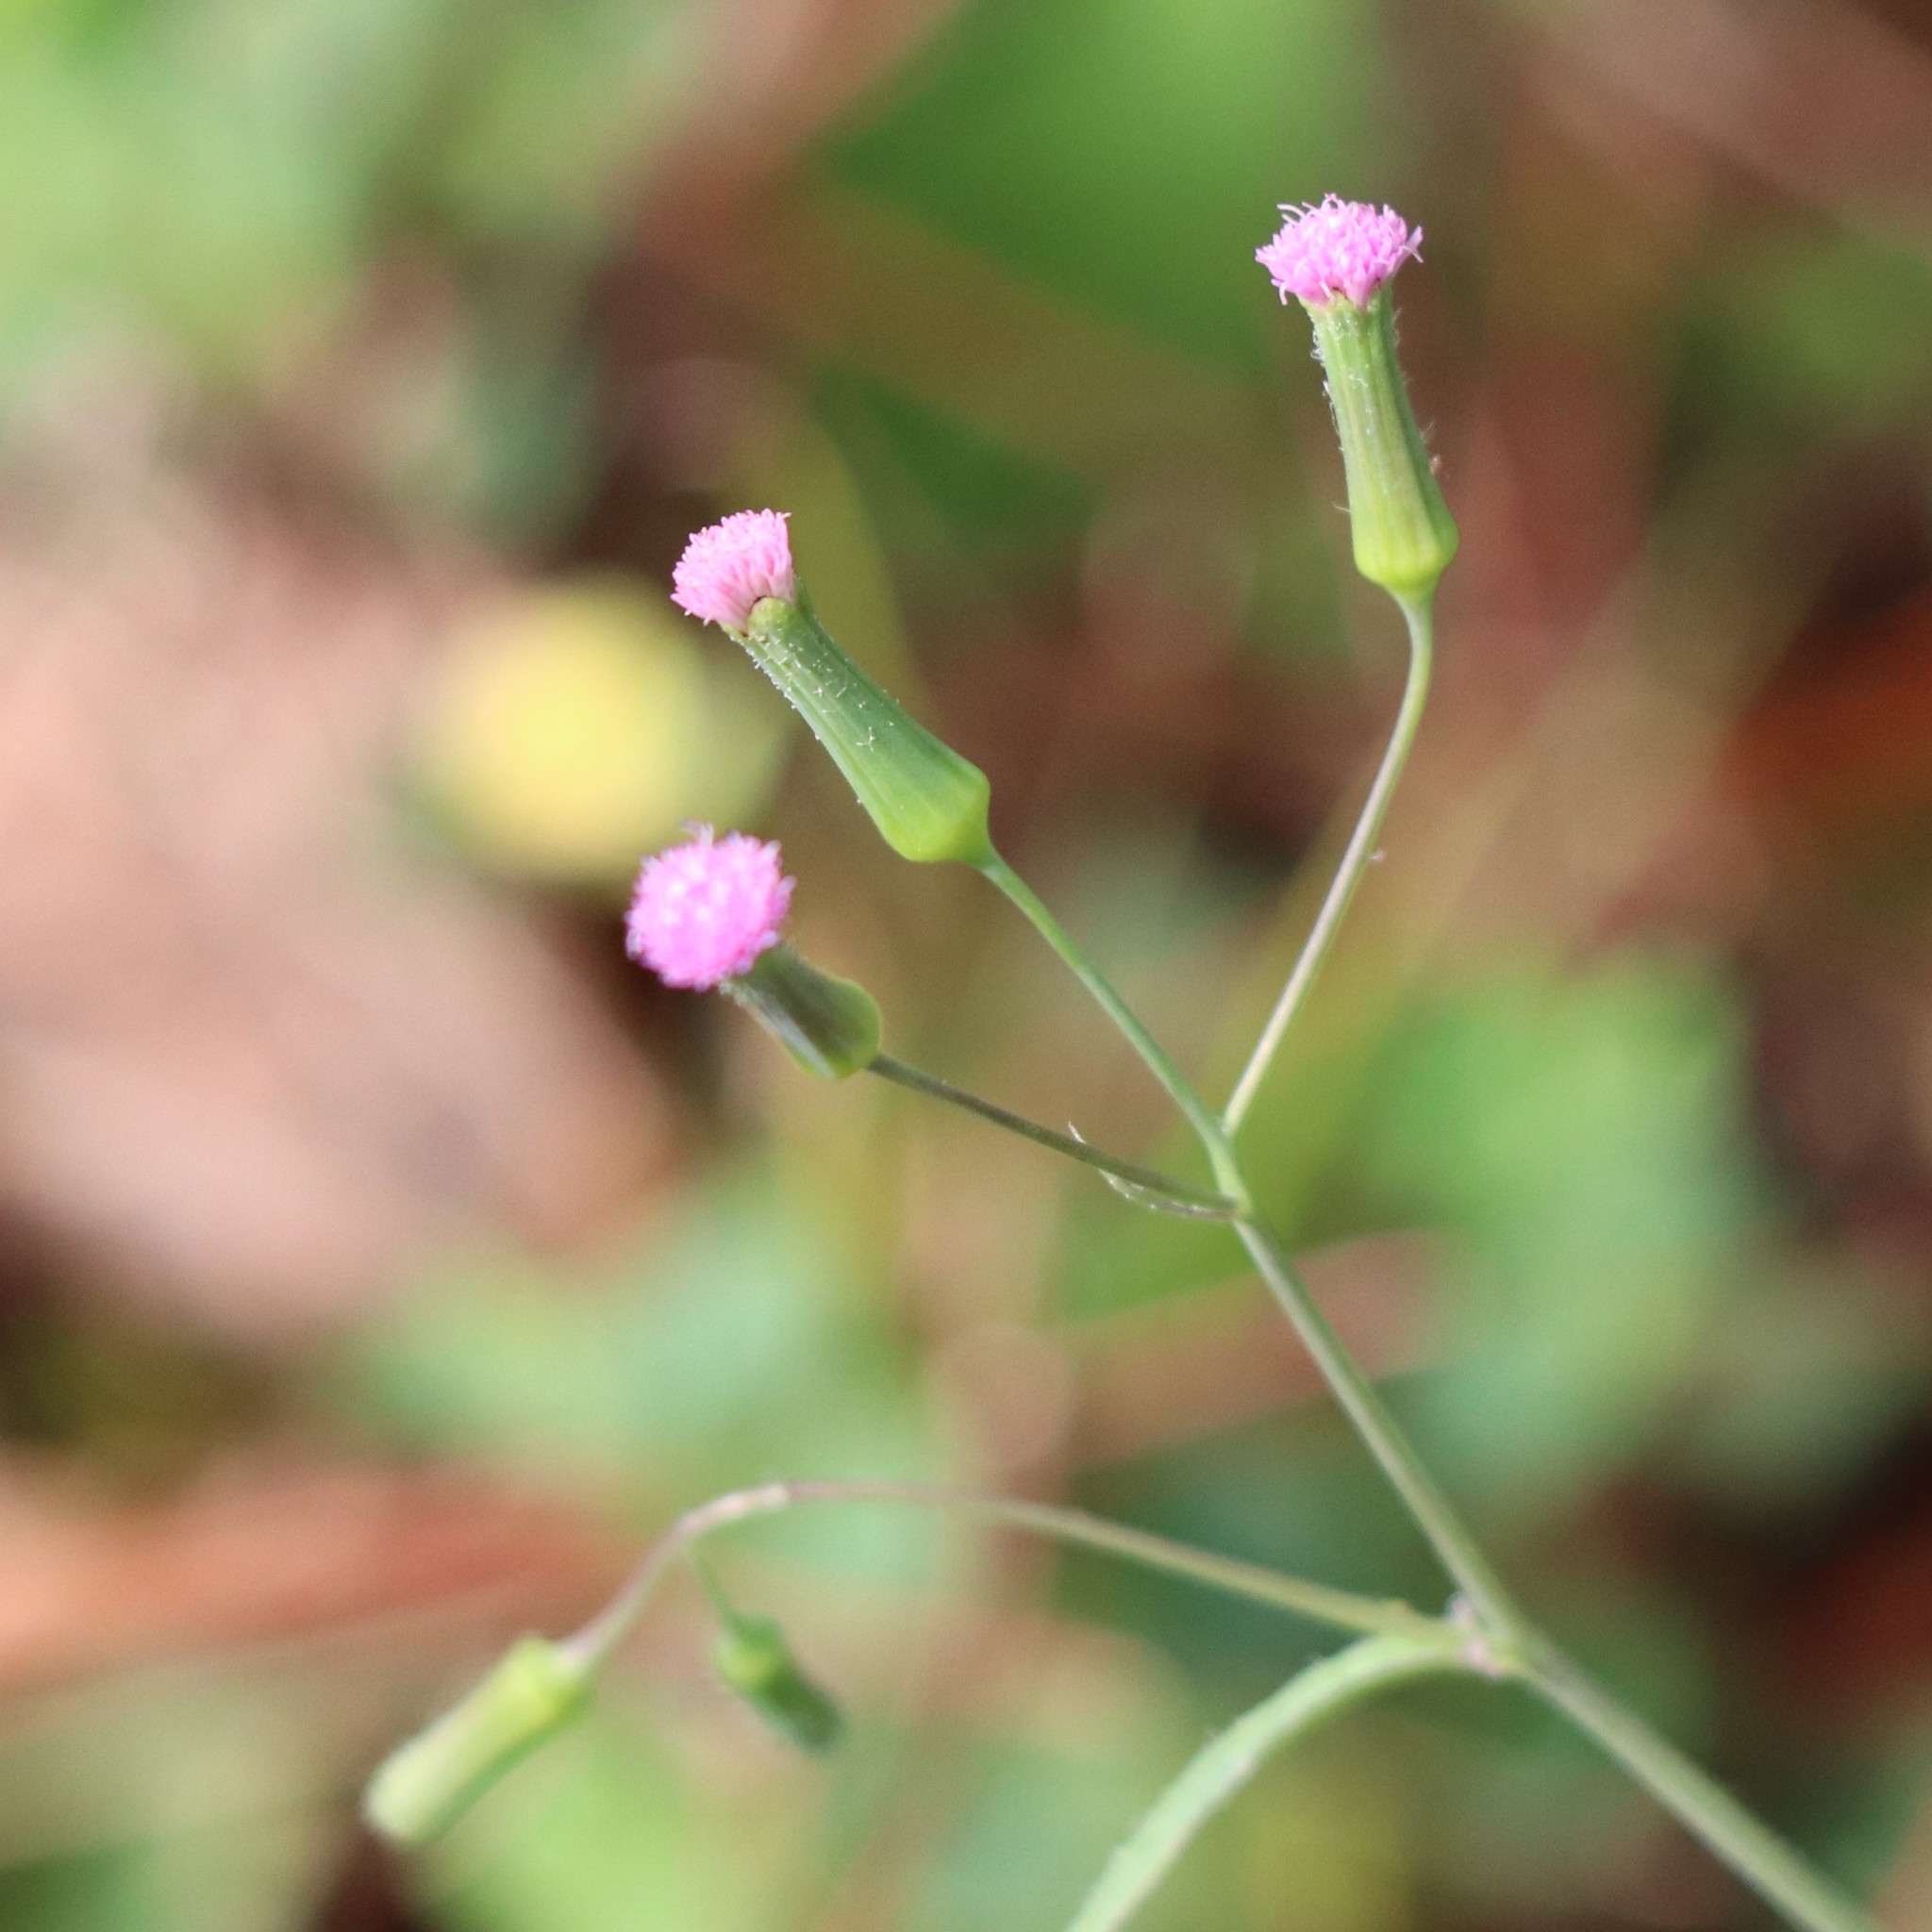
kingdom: Plantae
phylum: Tracheophyta
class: Magnoliopsida
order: Asterales
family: Asteraceae
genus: Emilia
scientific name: Emilia sonchifolia
